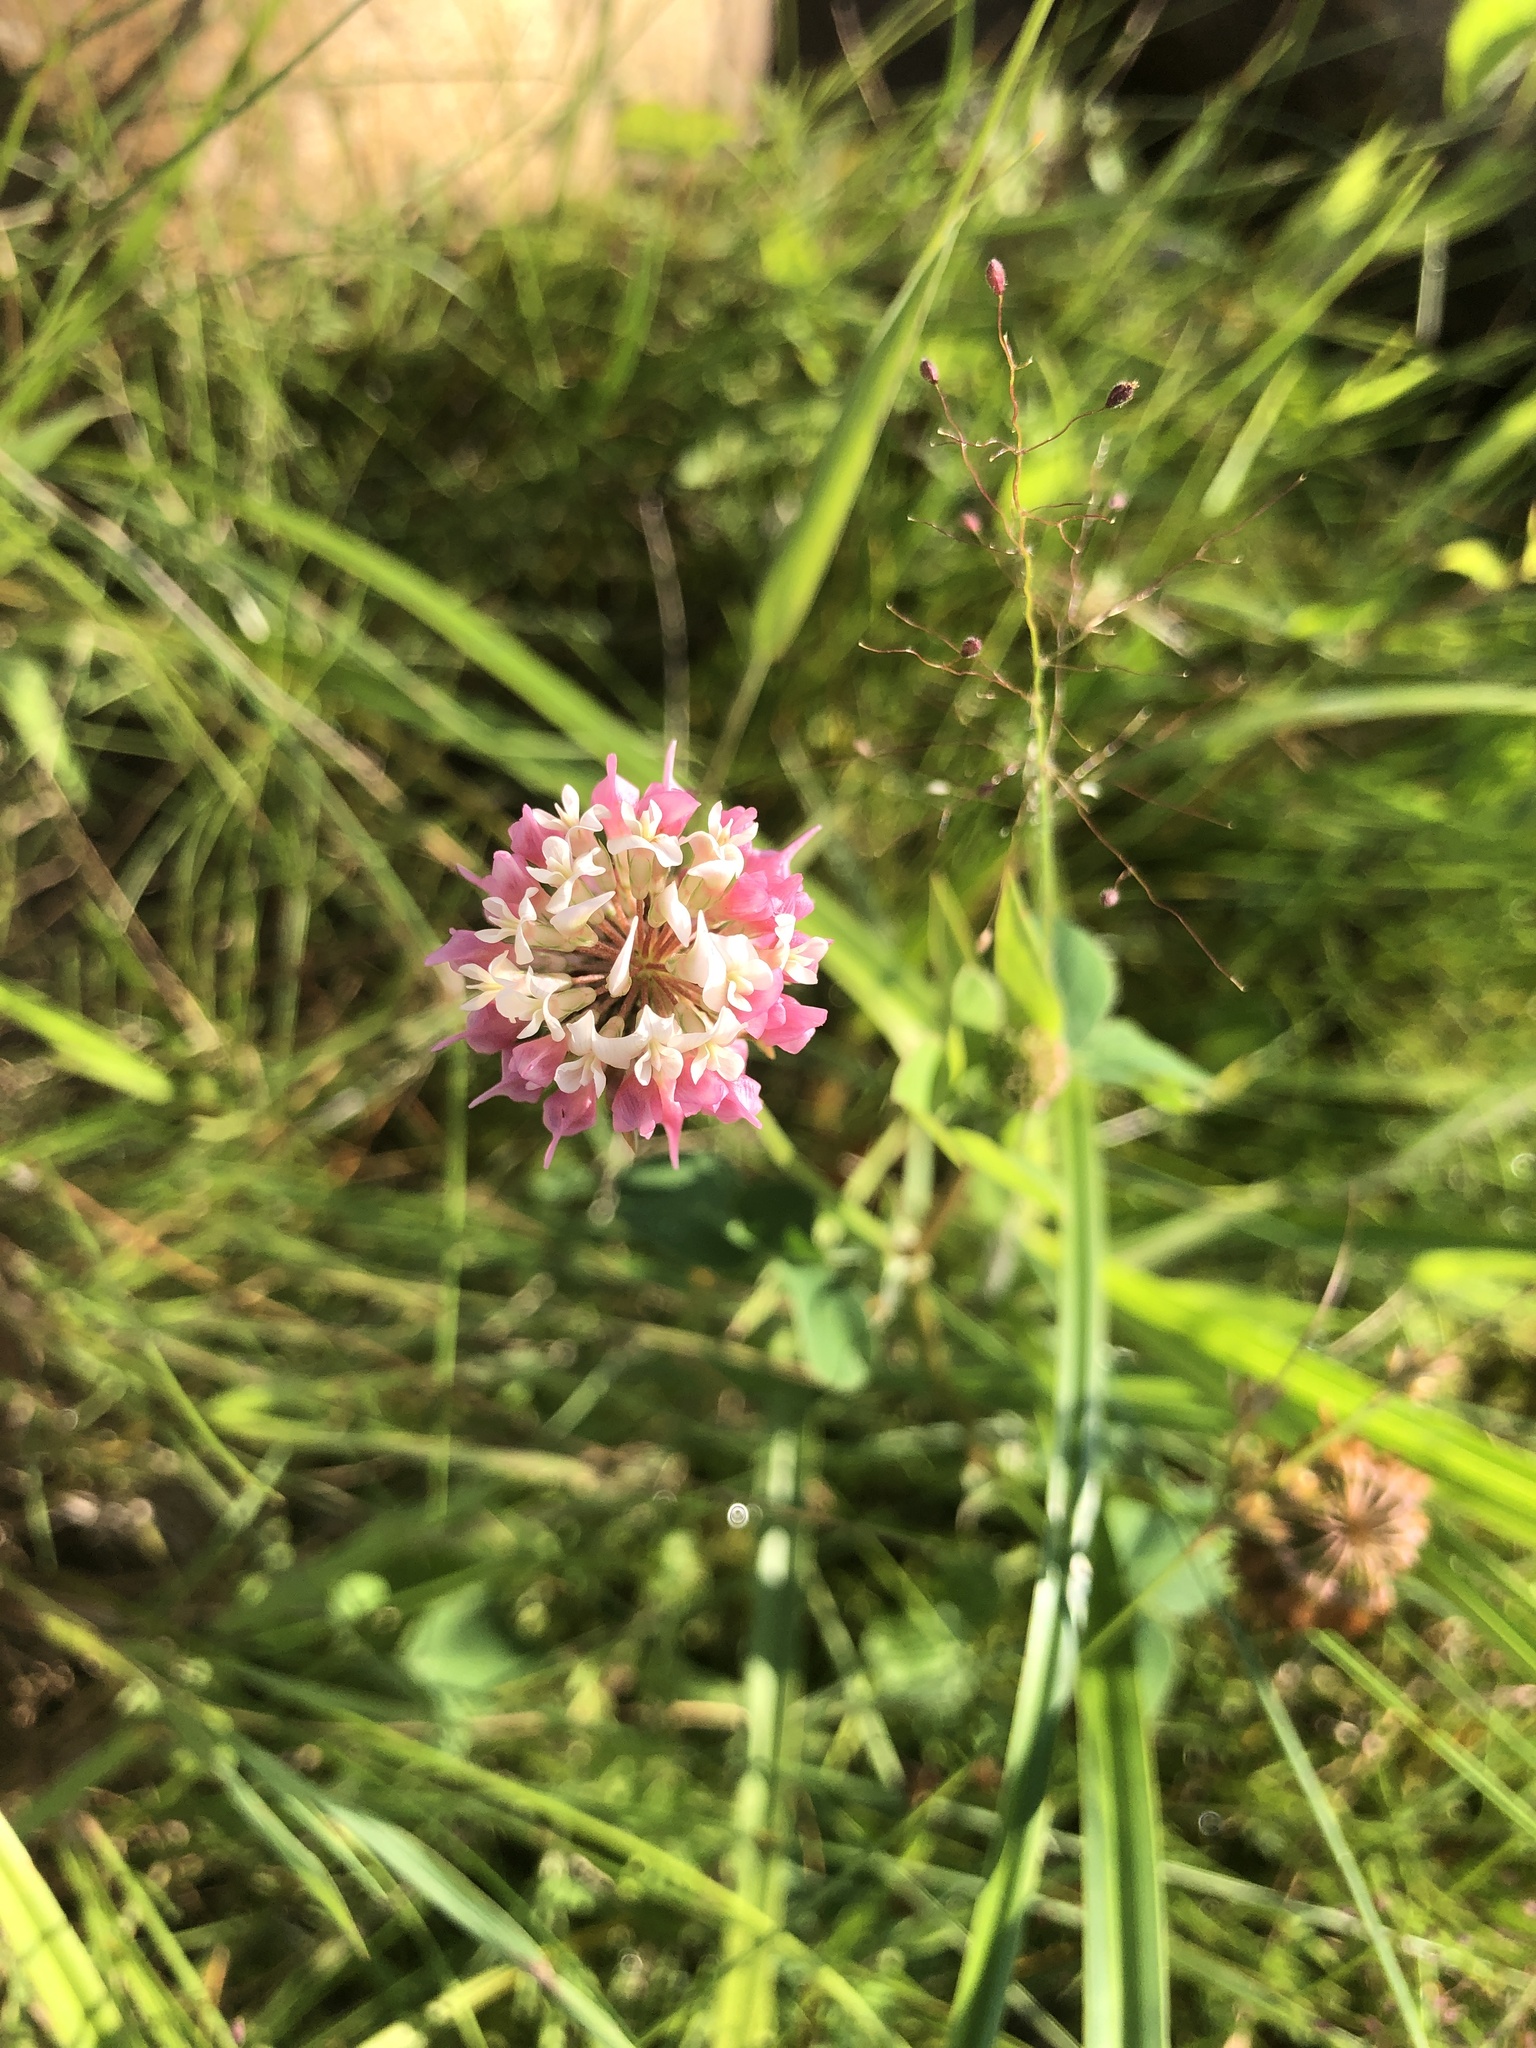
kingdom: Plantae
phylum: Tracheophyta
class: Magnoliopsida
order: Fabales
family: Fabaceae
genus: Trifolium
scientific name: Trifolium hybridum
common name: Alsike clover
